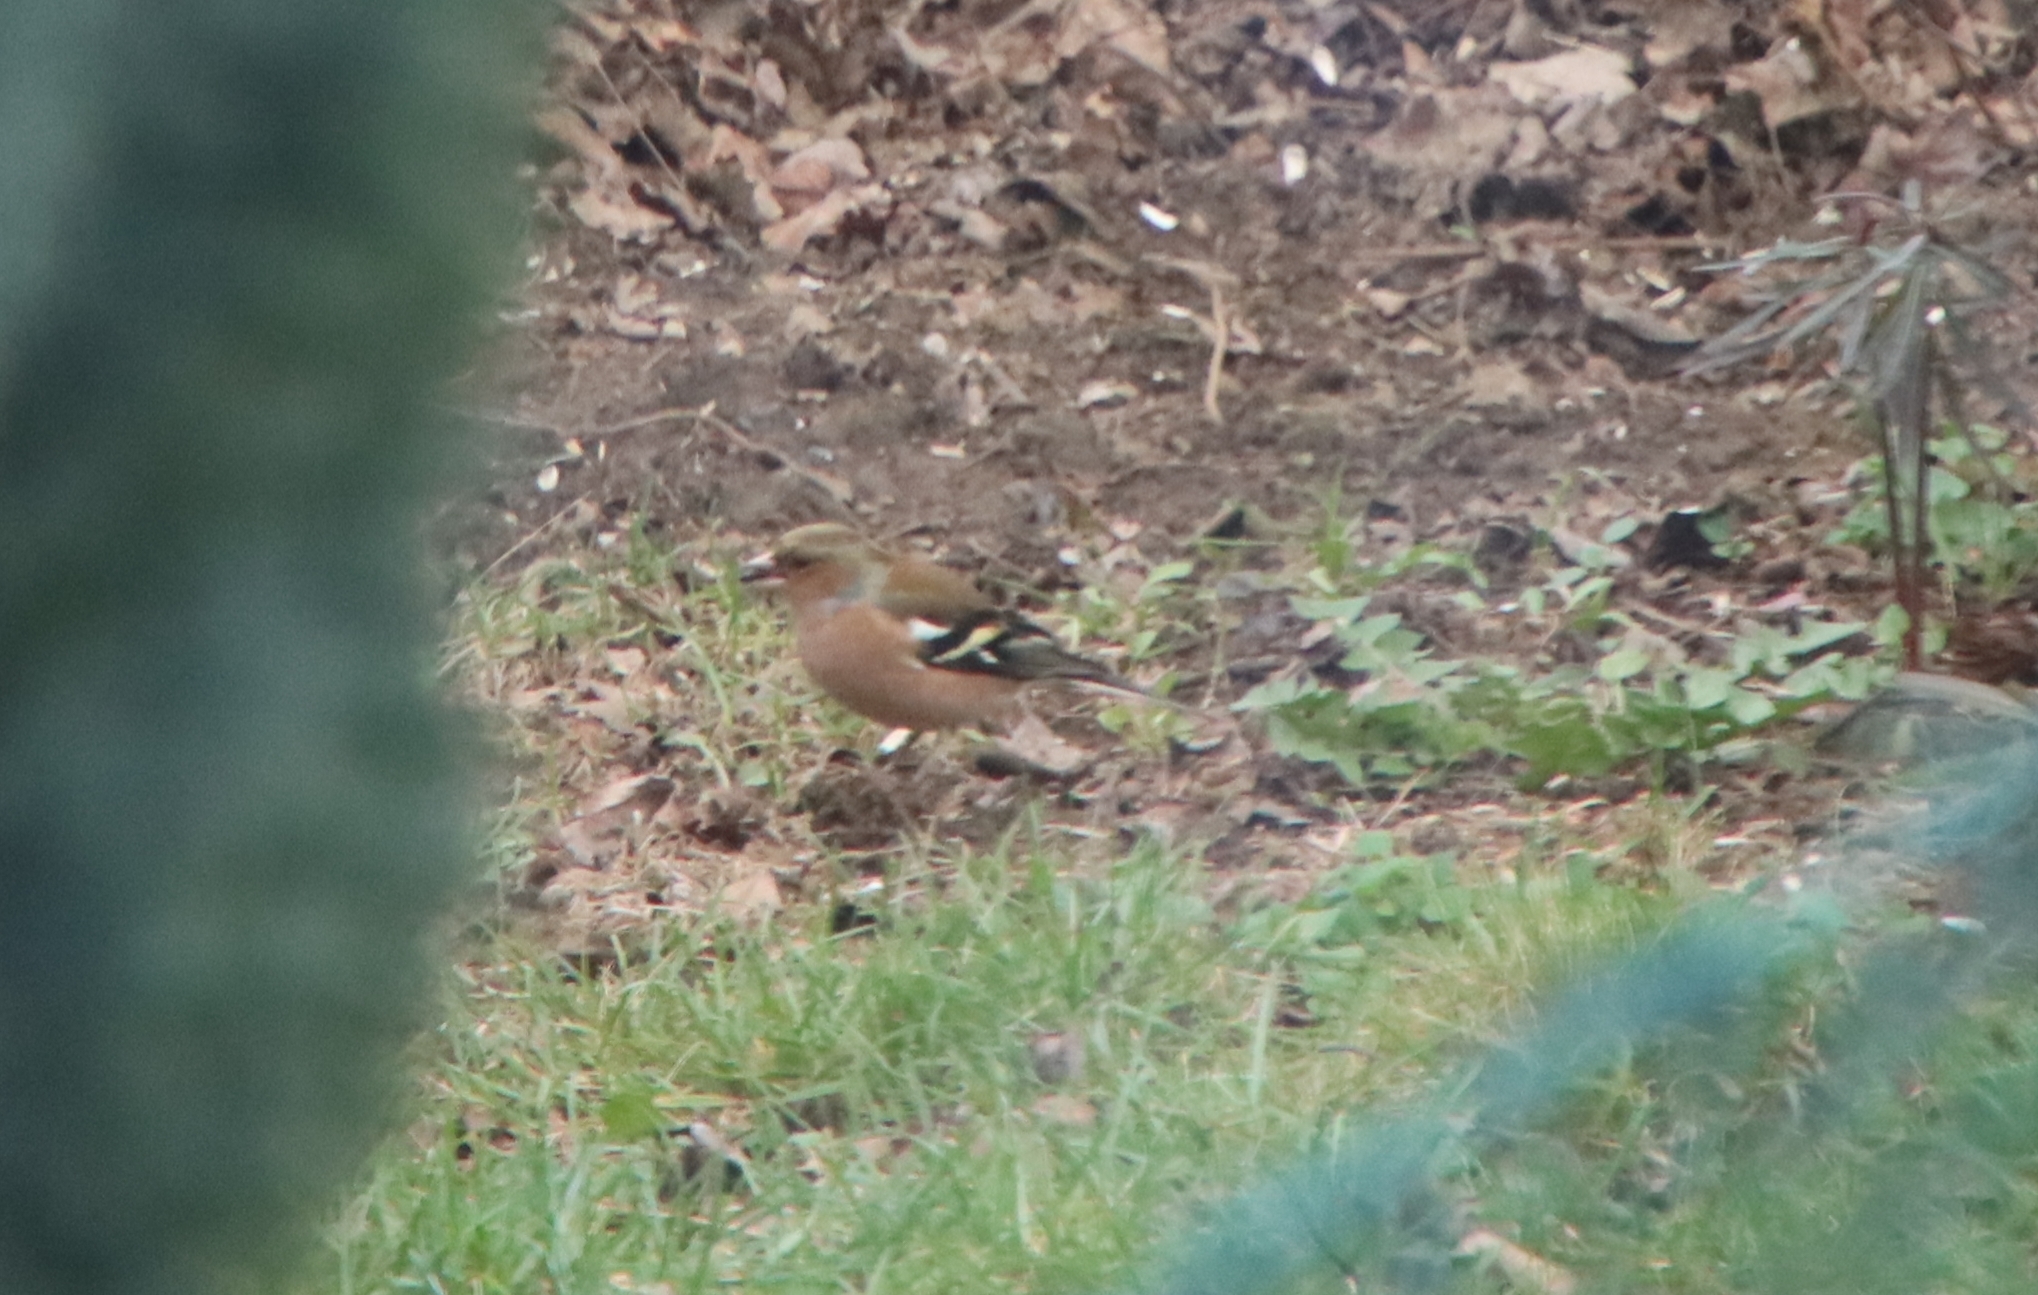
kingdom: Animalia
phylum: Chordata
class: Aves
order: Passeriformes
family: Fringillidae
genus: Fringilla
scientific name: Fringilla coelebs
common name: Common chaffinch
